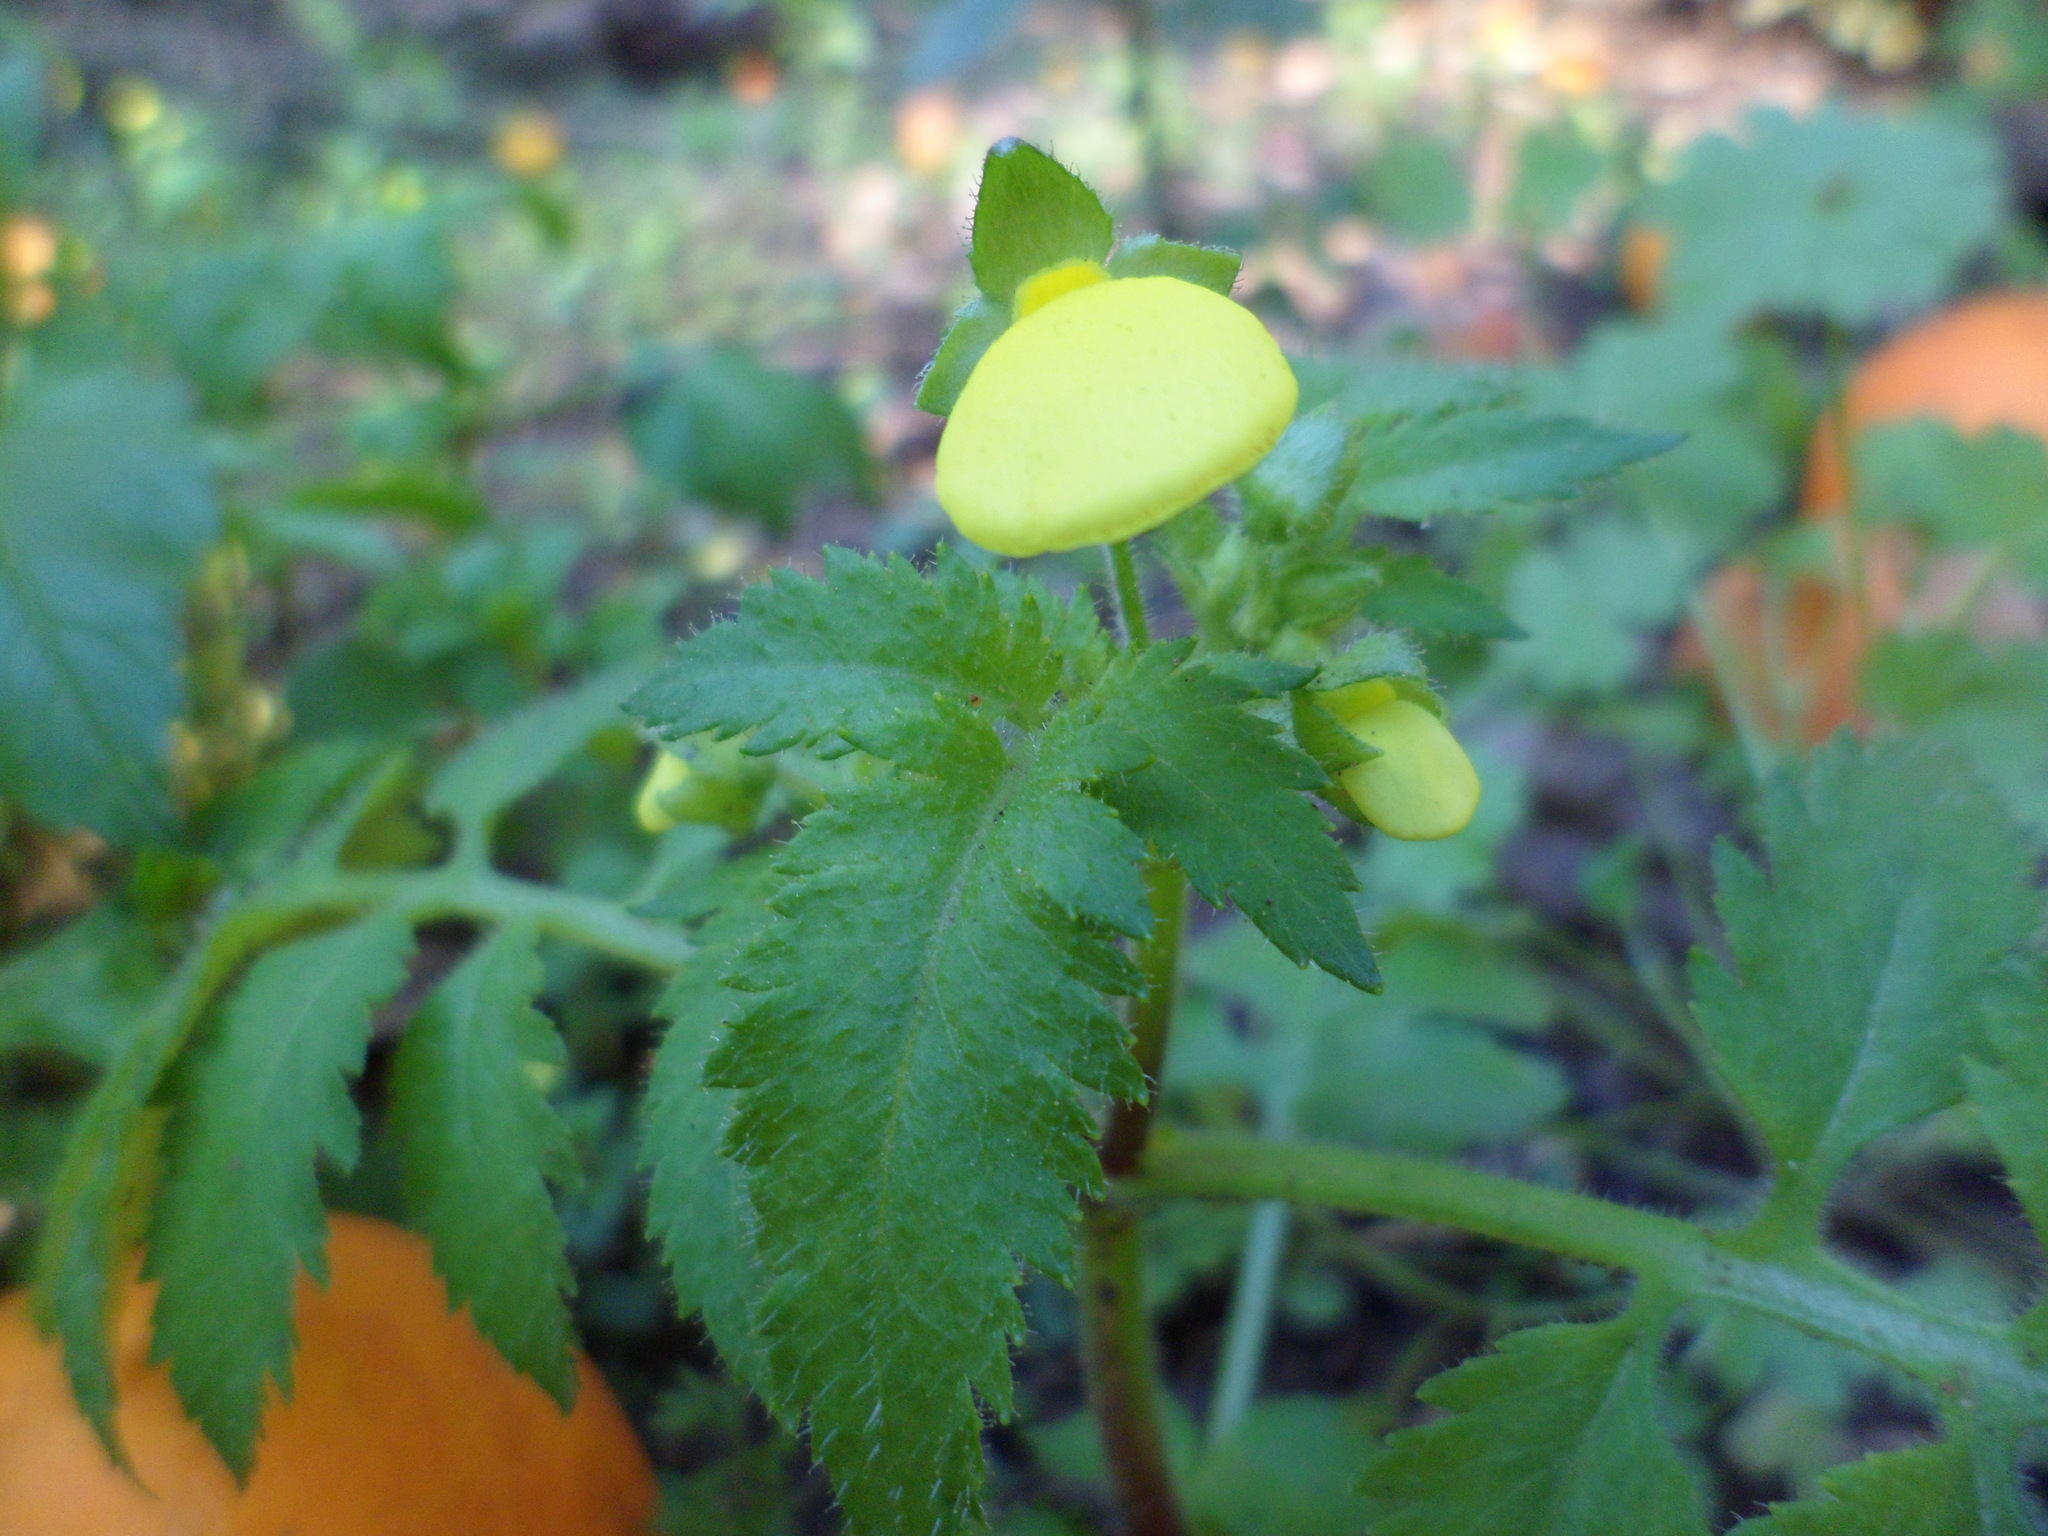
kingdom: Plantae
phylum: Tracheophyta
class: Magnoliopsida
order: Lamiales
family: Calceolariaceae
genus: Calceolaria
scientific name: Calceolaria tripartita
